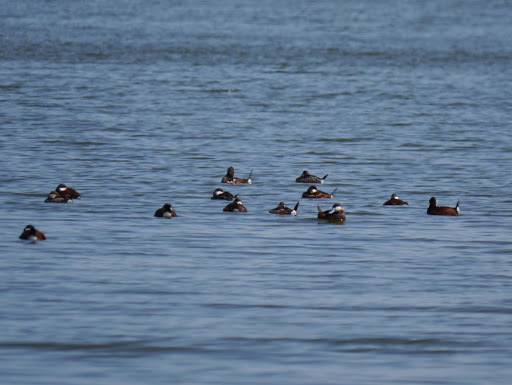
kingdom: Animalia
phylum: Chordata
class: Aves
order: Anseriformes
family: Anatidae
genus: Oxyura
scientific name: Oxyura jamaicensis
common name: Ruddy duck
